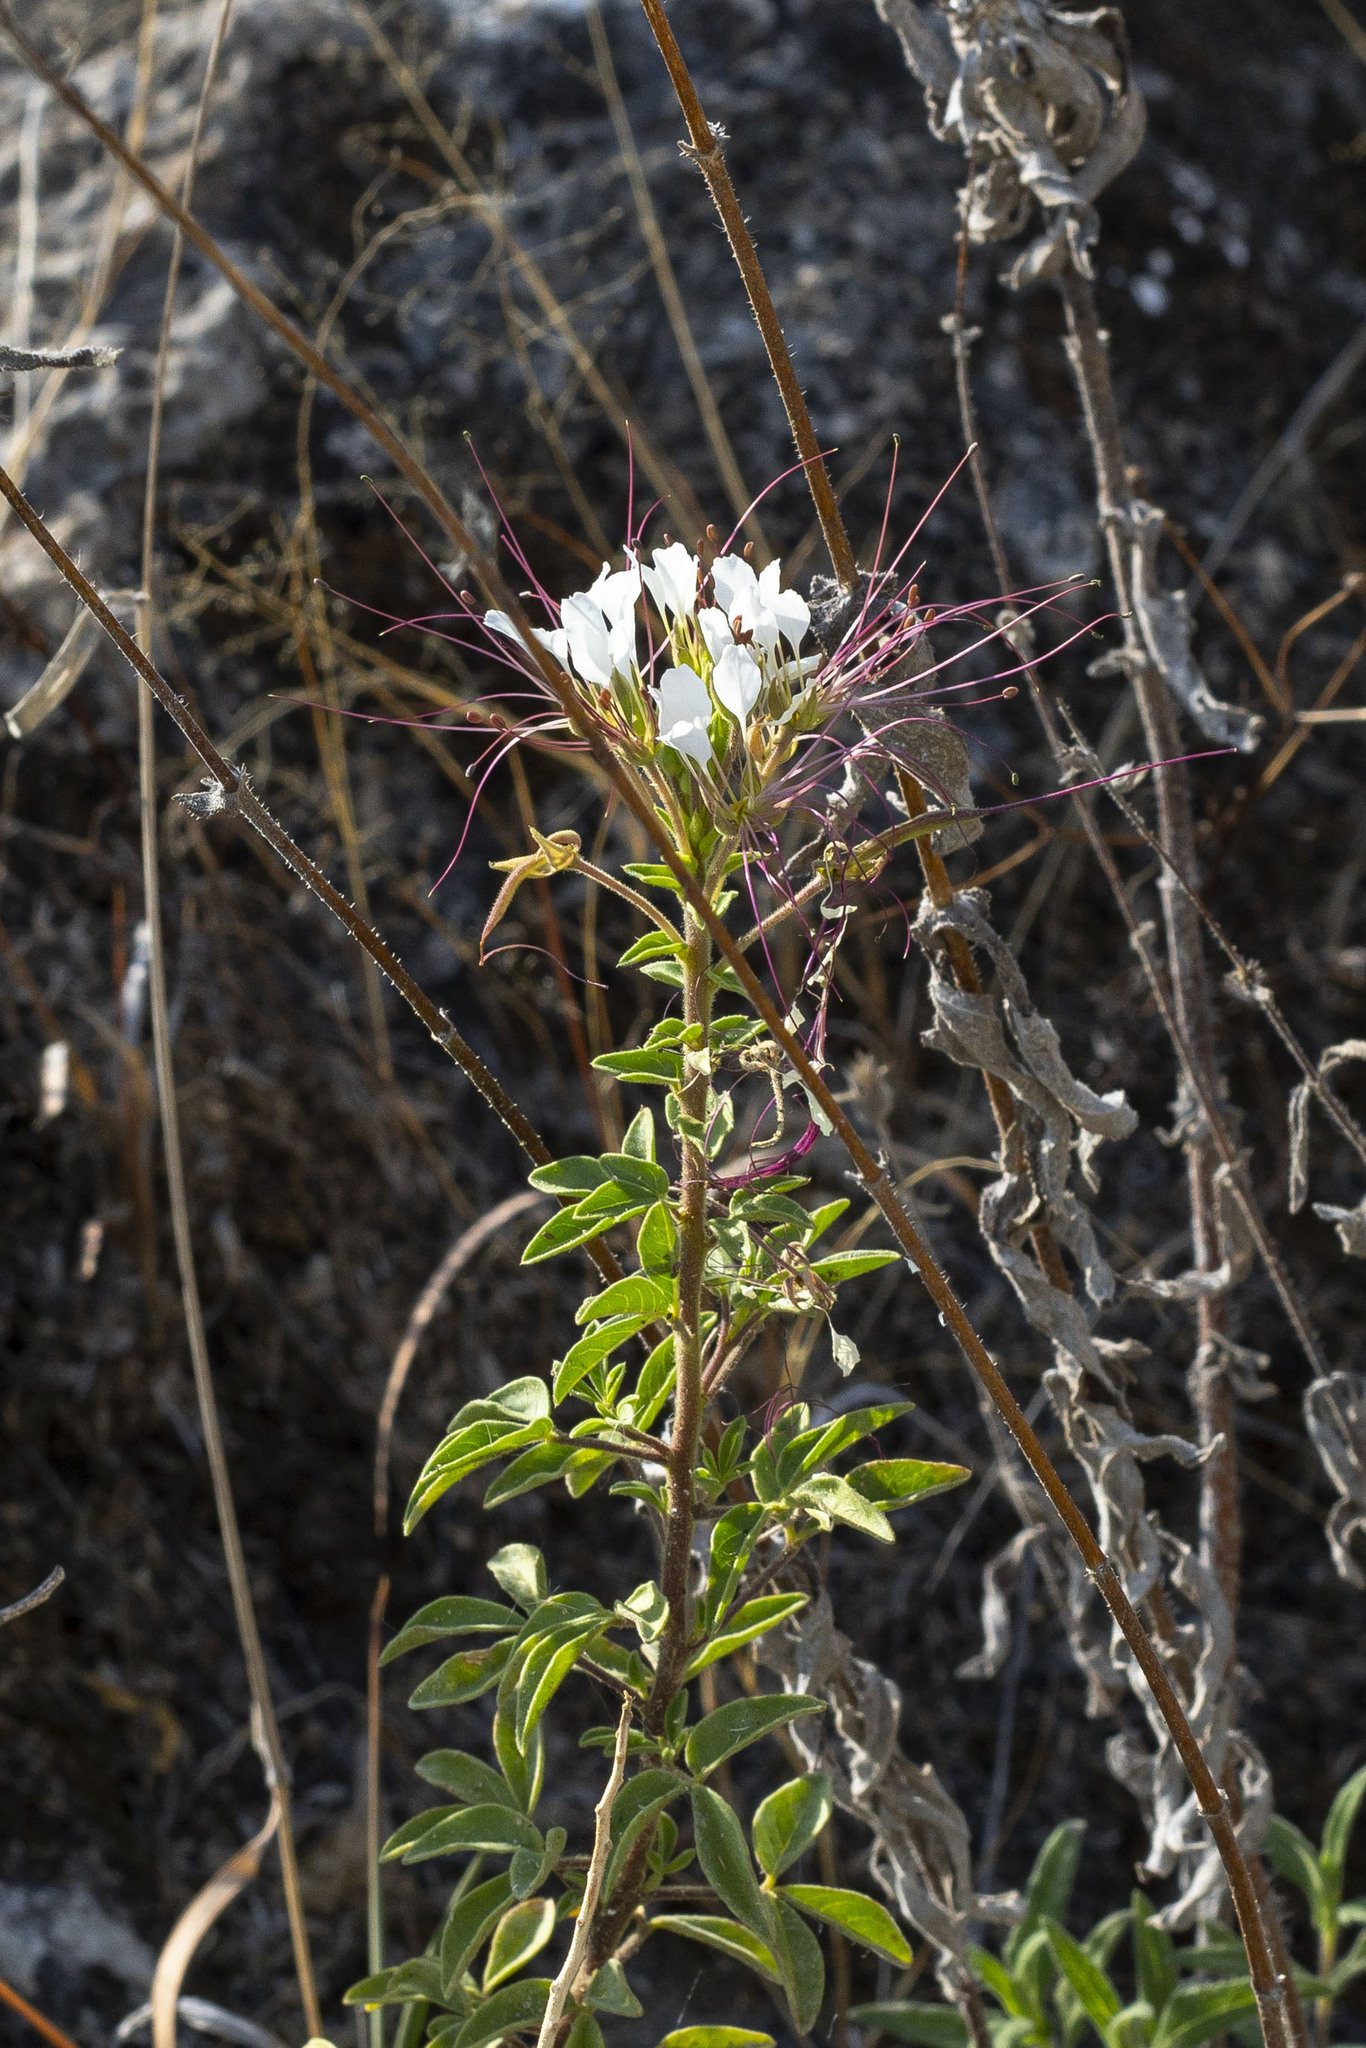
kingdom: Plantae
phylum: Tracheophyta
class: Magnoliopsida
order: Brassicales
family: Cleomaceae
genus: Polanisia
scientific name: Polanisia dodecandra
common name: Clammyweed
